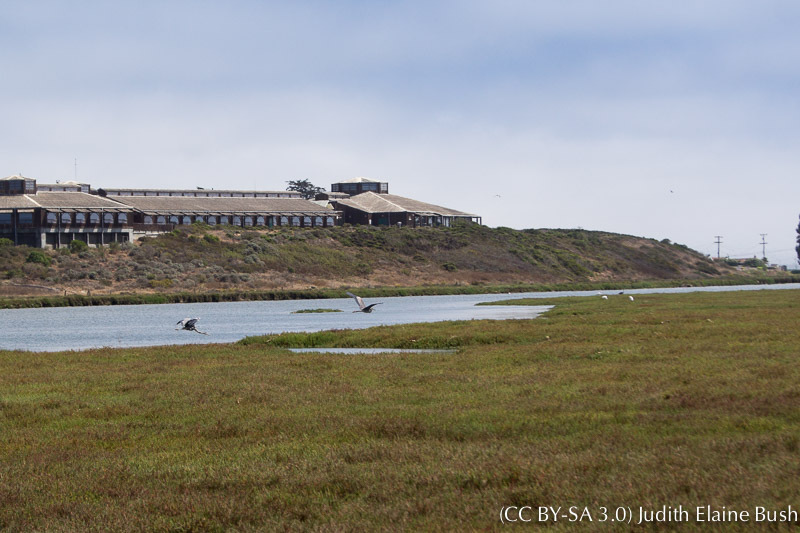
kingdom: Animalia
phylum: Chordata
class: Aves
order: Pelecaniformes
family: Ardeidae
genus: Ardea
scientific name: Ardea herodias
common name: Great blue heron
